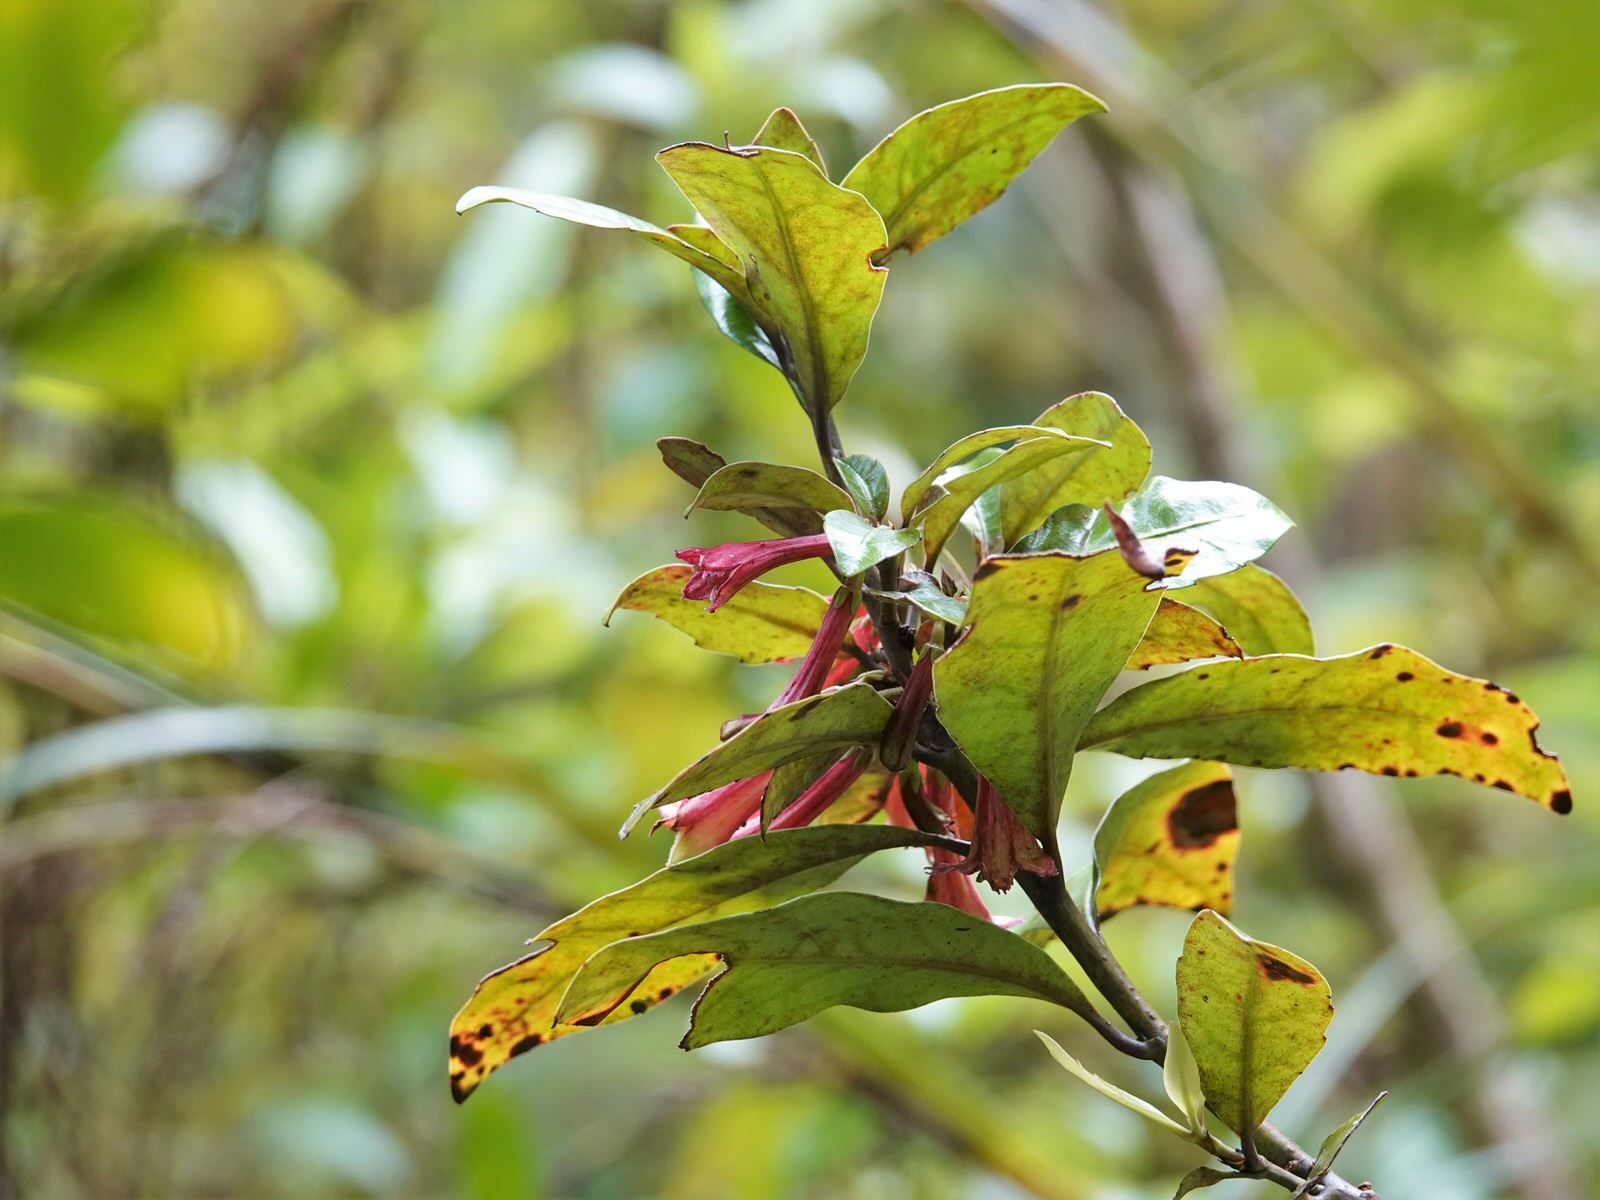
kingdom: Plantae
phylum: Tracheophyta
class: Magnoliopsida
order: Asterales
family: Alseuosmiaceae
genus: Alseuosmia
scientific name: Alseuosmia macrophylla
